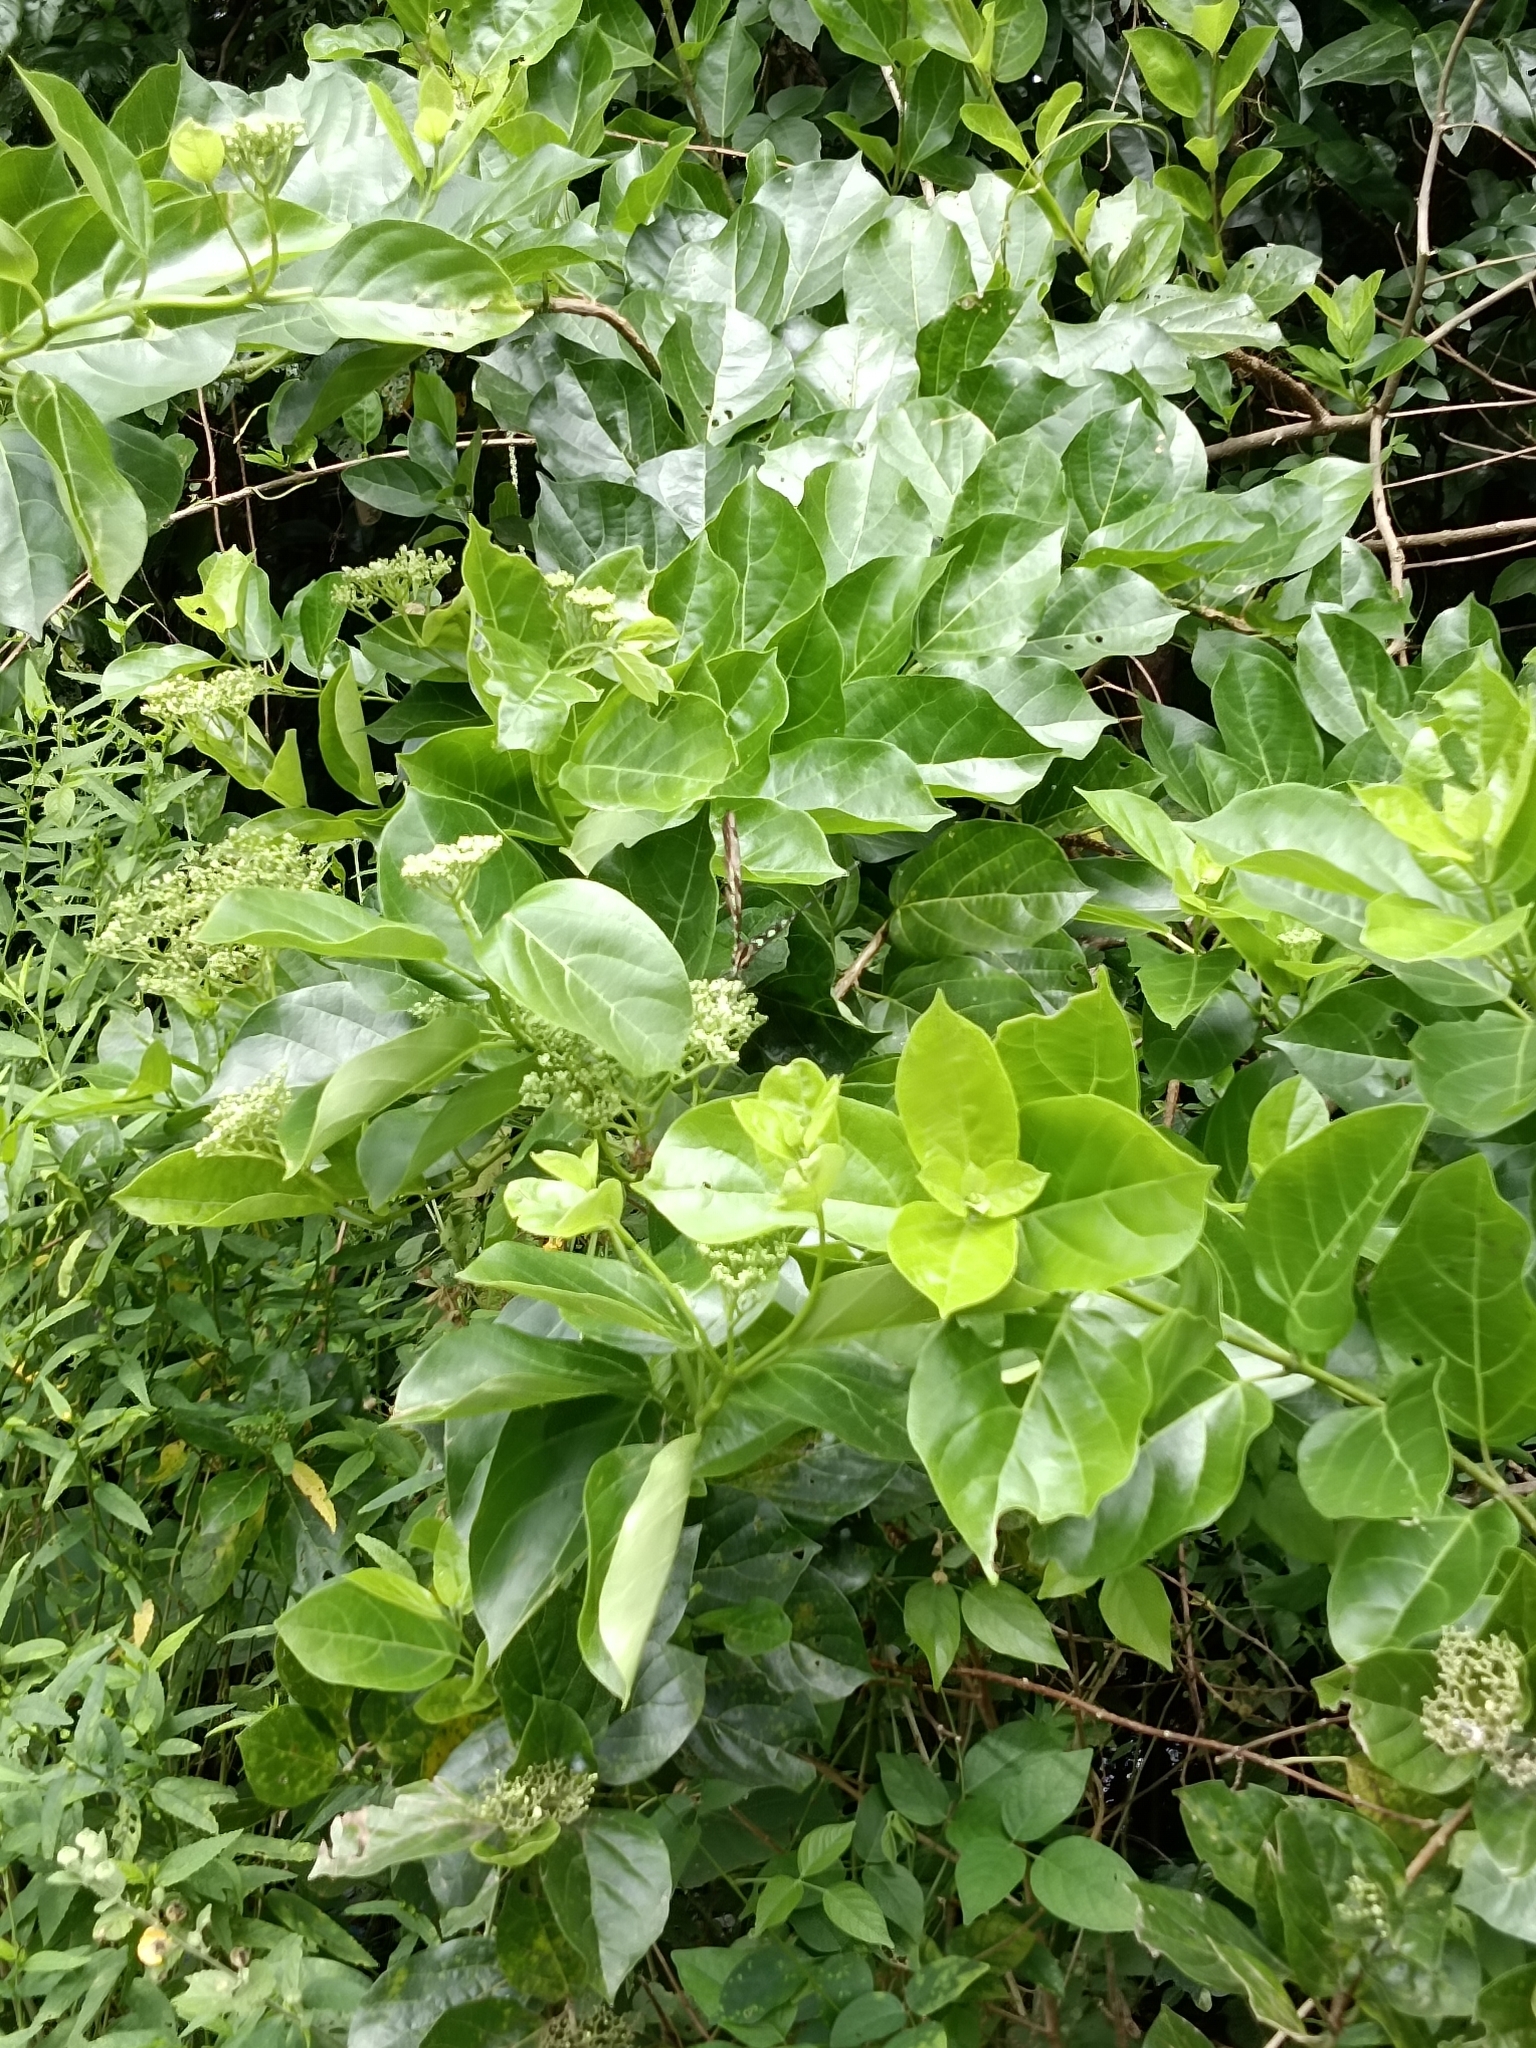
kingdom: Plantae
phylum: Tracheophyta
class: Magnoliopsida
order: Lamiales
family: Lamiaceae
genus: Premna
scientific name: Premna serratifolia
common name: Bastard guelder
